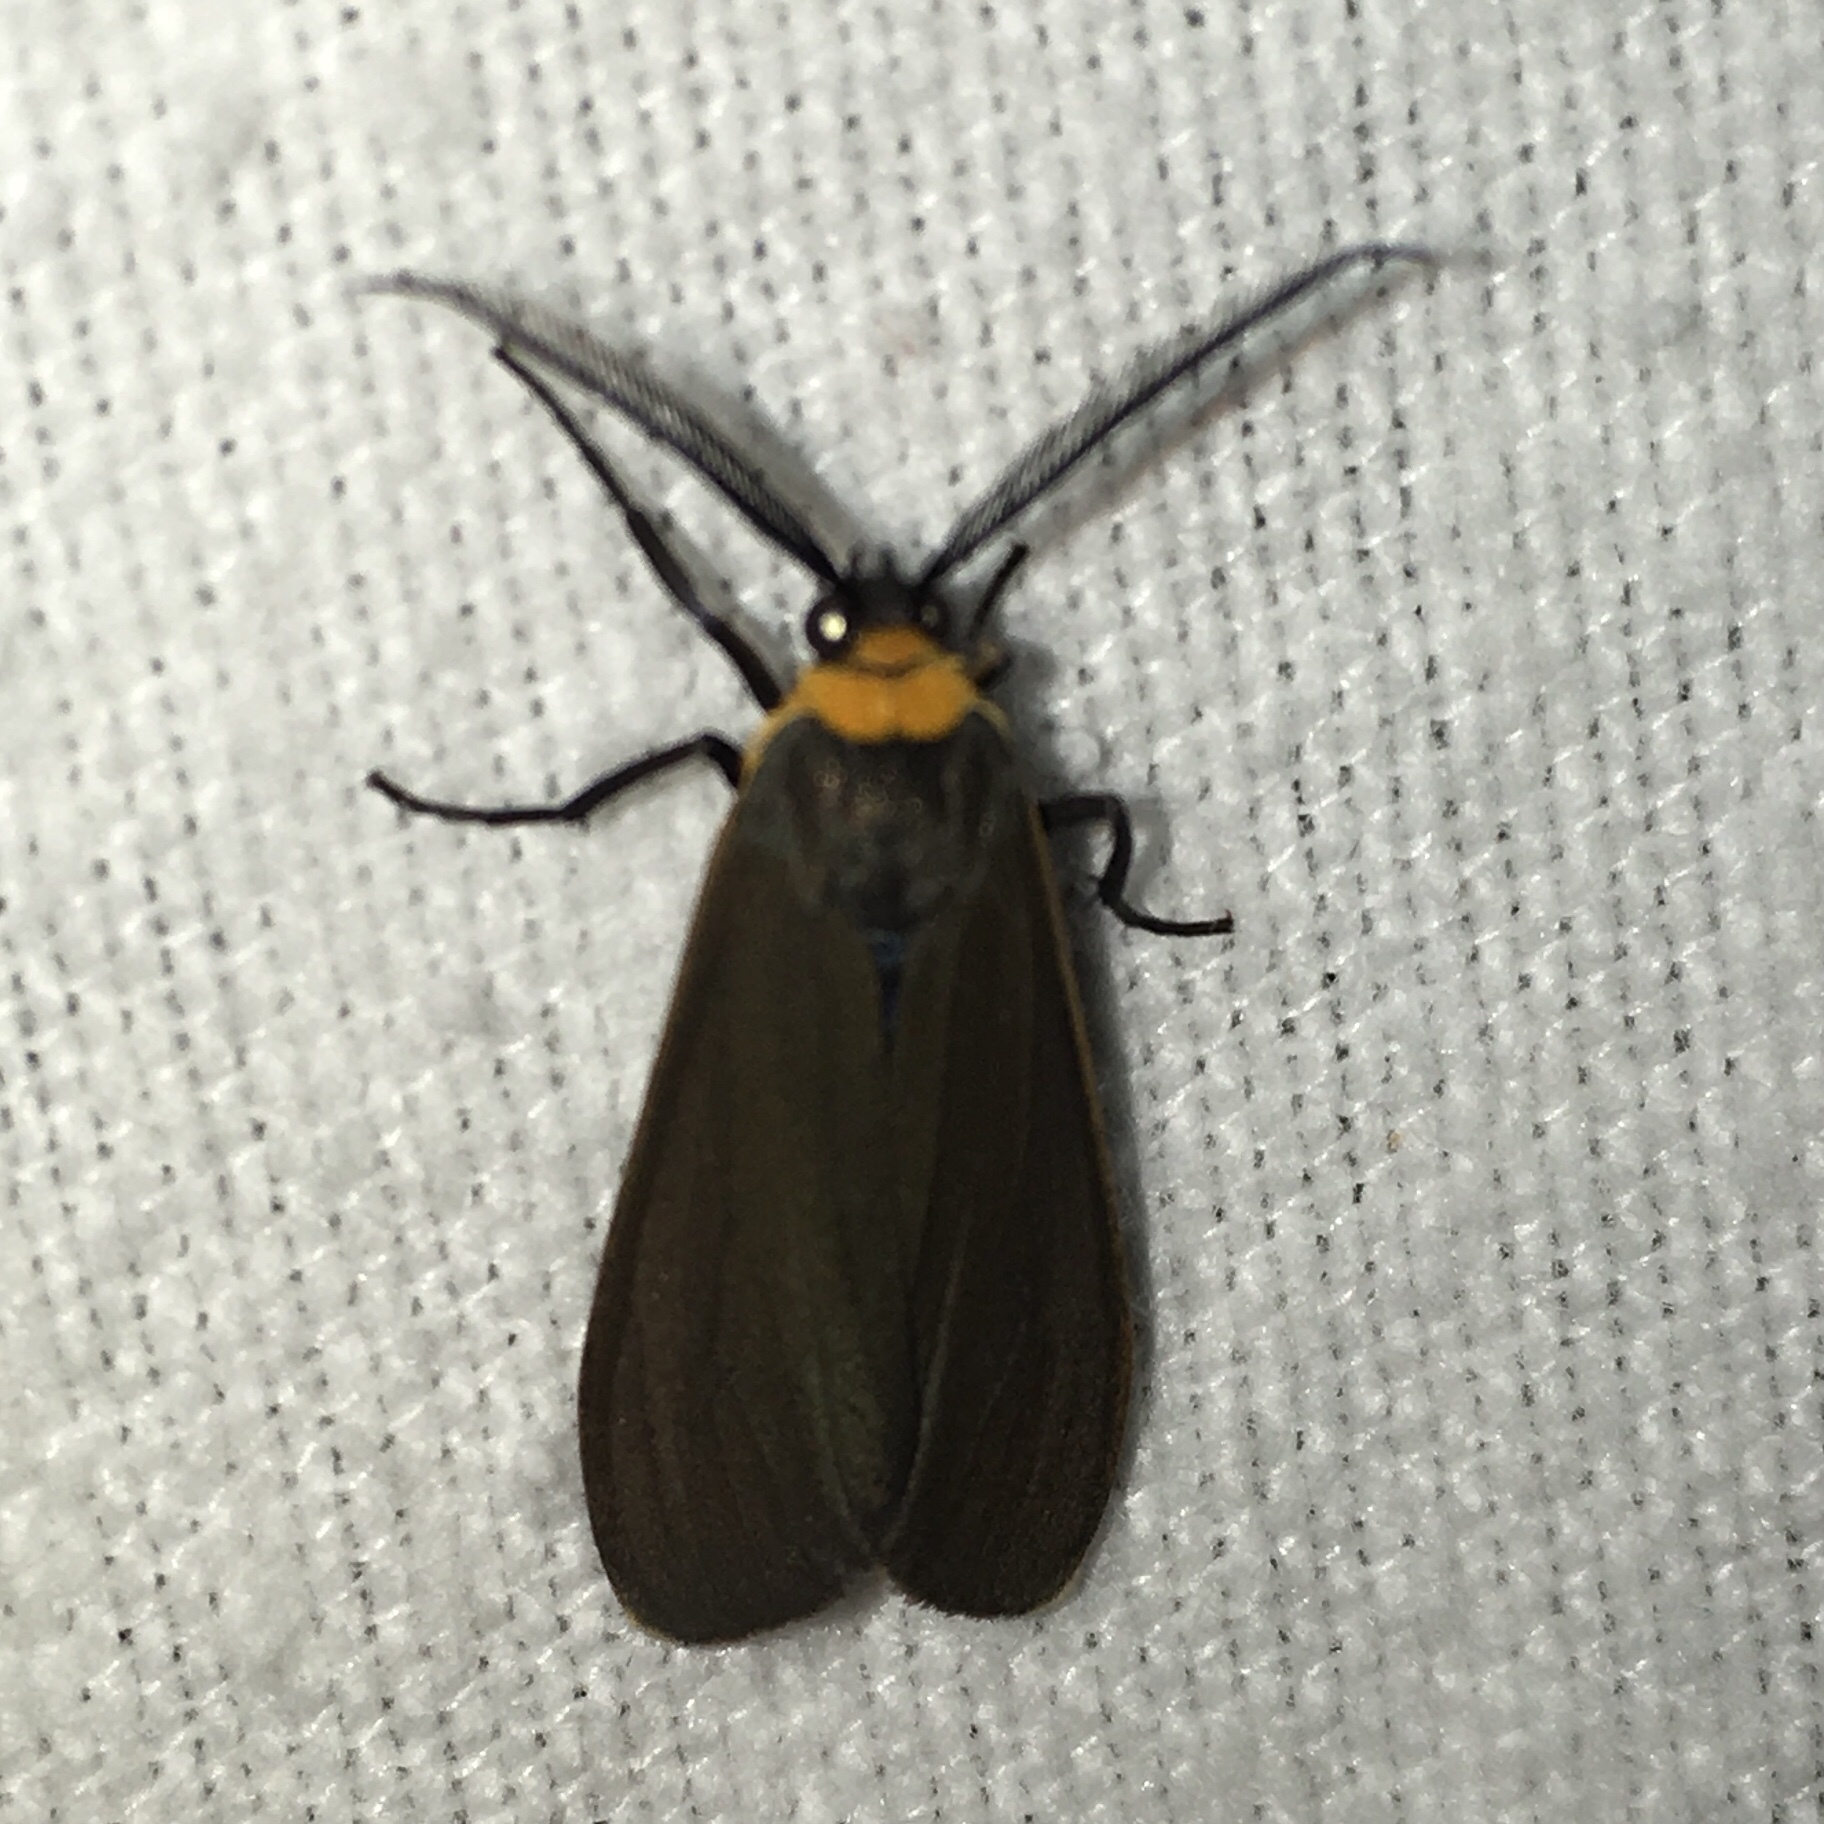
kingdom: Animalia
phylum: Arthropoda
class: Insecta
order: Lepidoptera
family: Erebidae
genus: Cisseps
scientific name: Cisseps fulvicollis
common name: Yellow-collared scape moth
